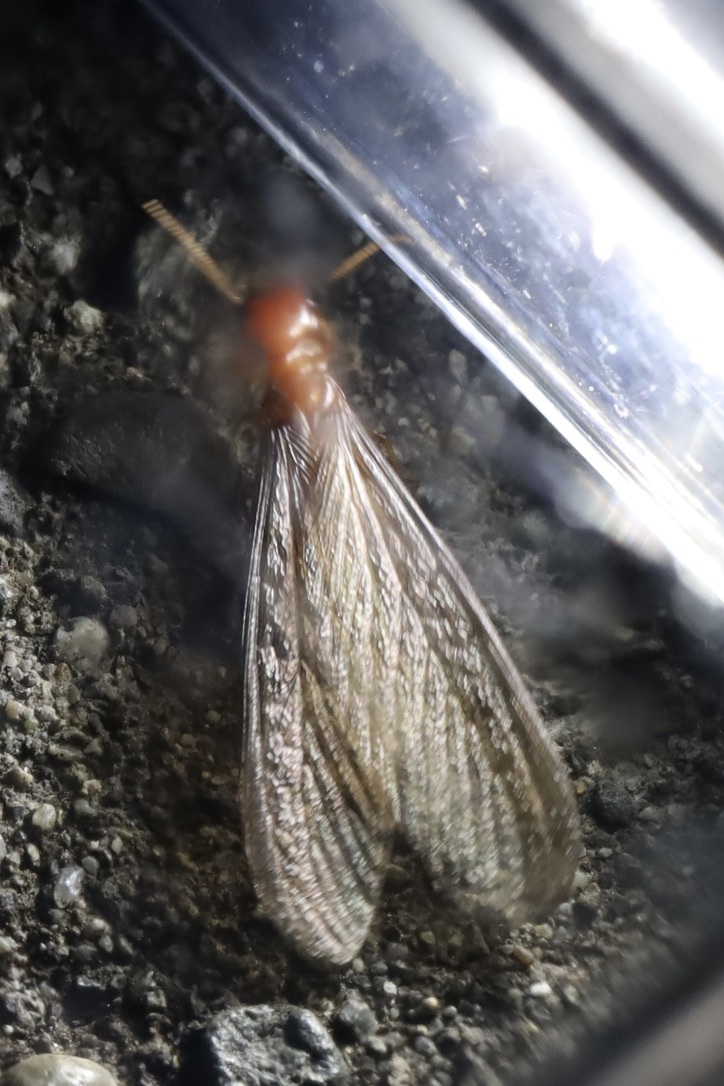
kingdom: Animalia
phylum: Arthropoda
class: Insecta
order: Blattodea
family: Archotermopsidae
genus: Zootermopsis
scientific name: Zootermopsis angusticollis
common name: Rottenwood termite
